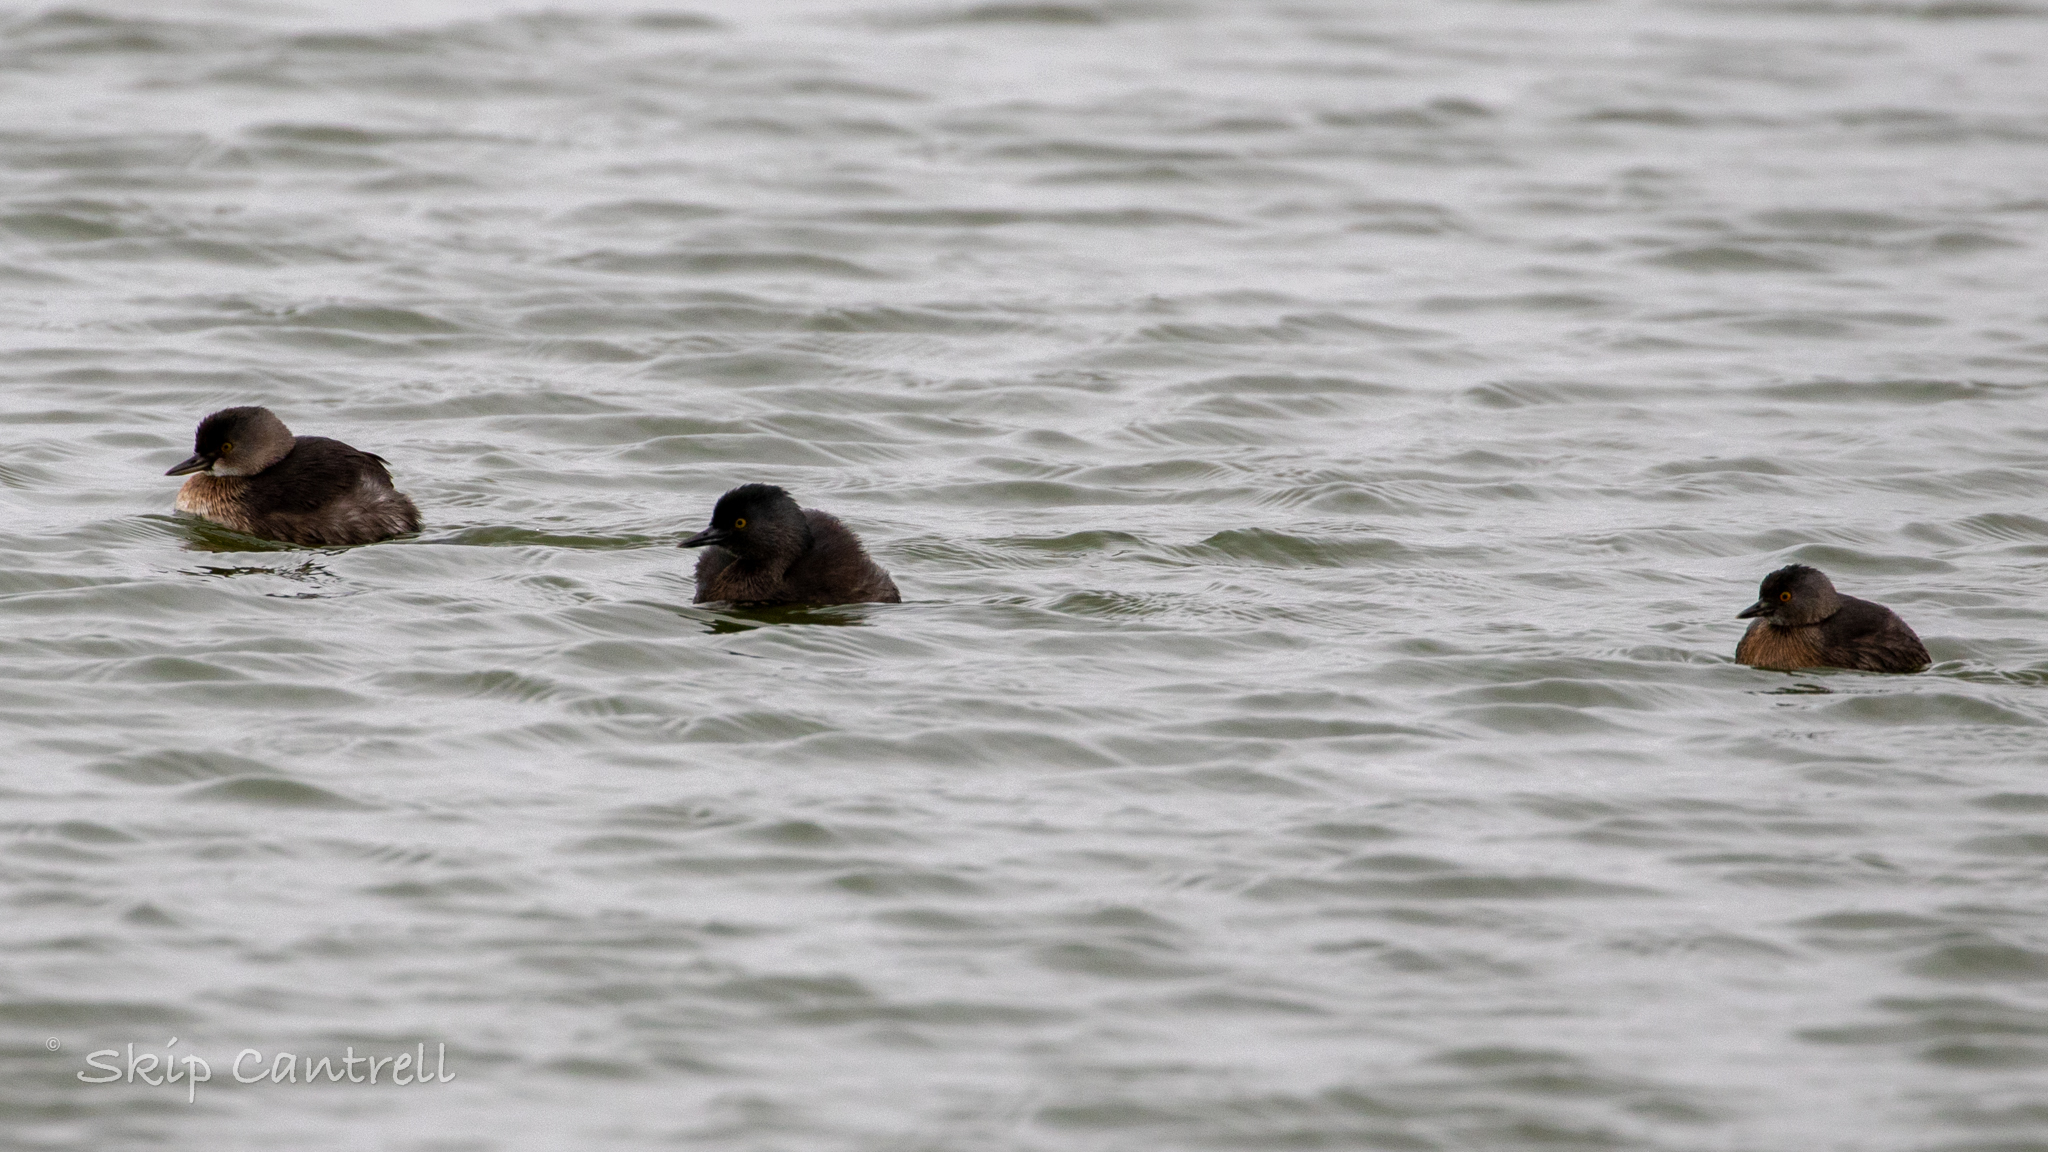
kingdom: Animalia
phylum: Chordata
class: Aves
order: Podicipediformes
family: Podicipedidae
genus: Tachybaptus
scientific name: Tachybaptus dominicus
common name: Least grebe
